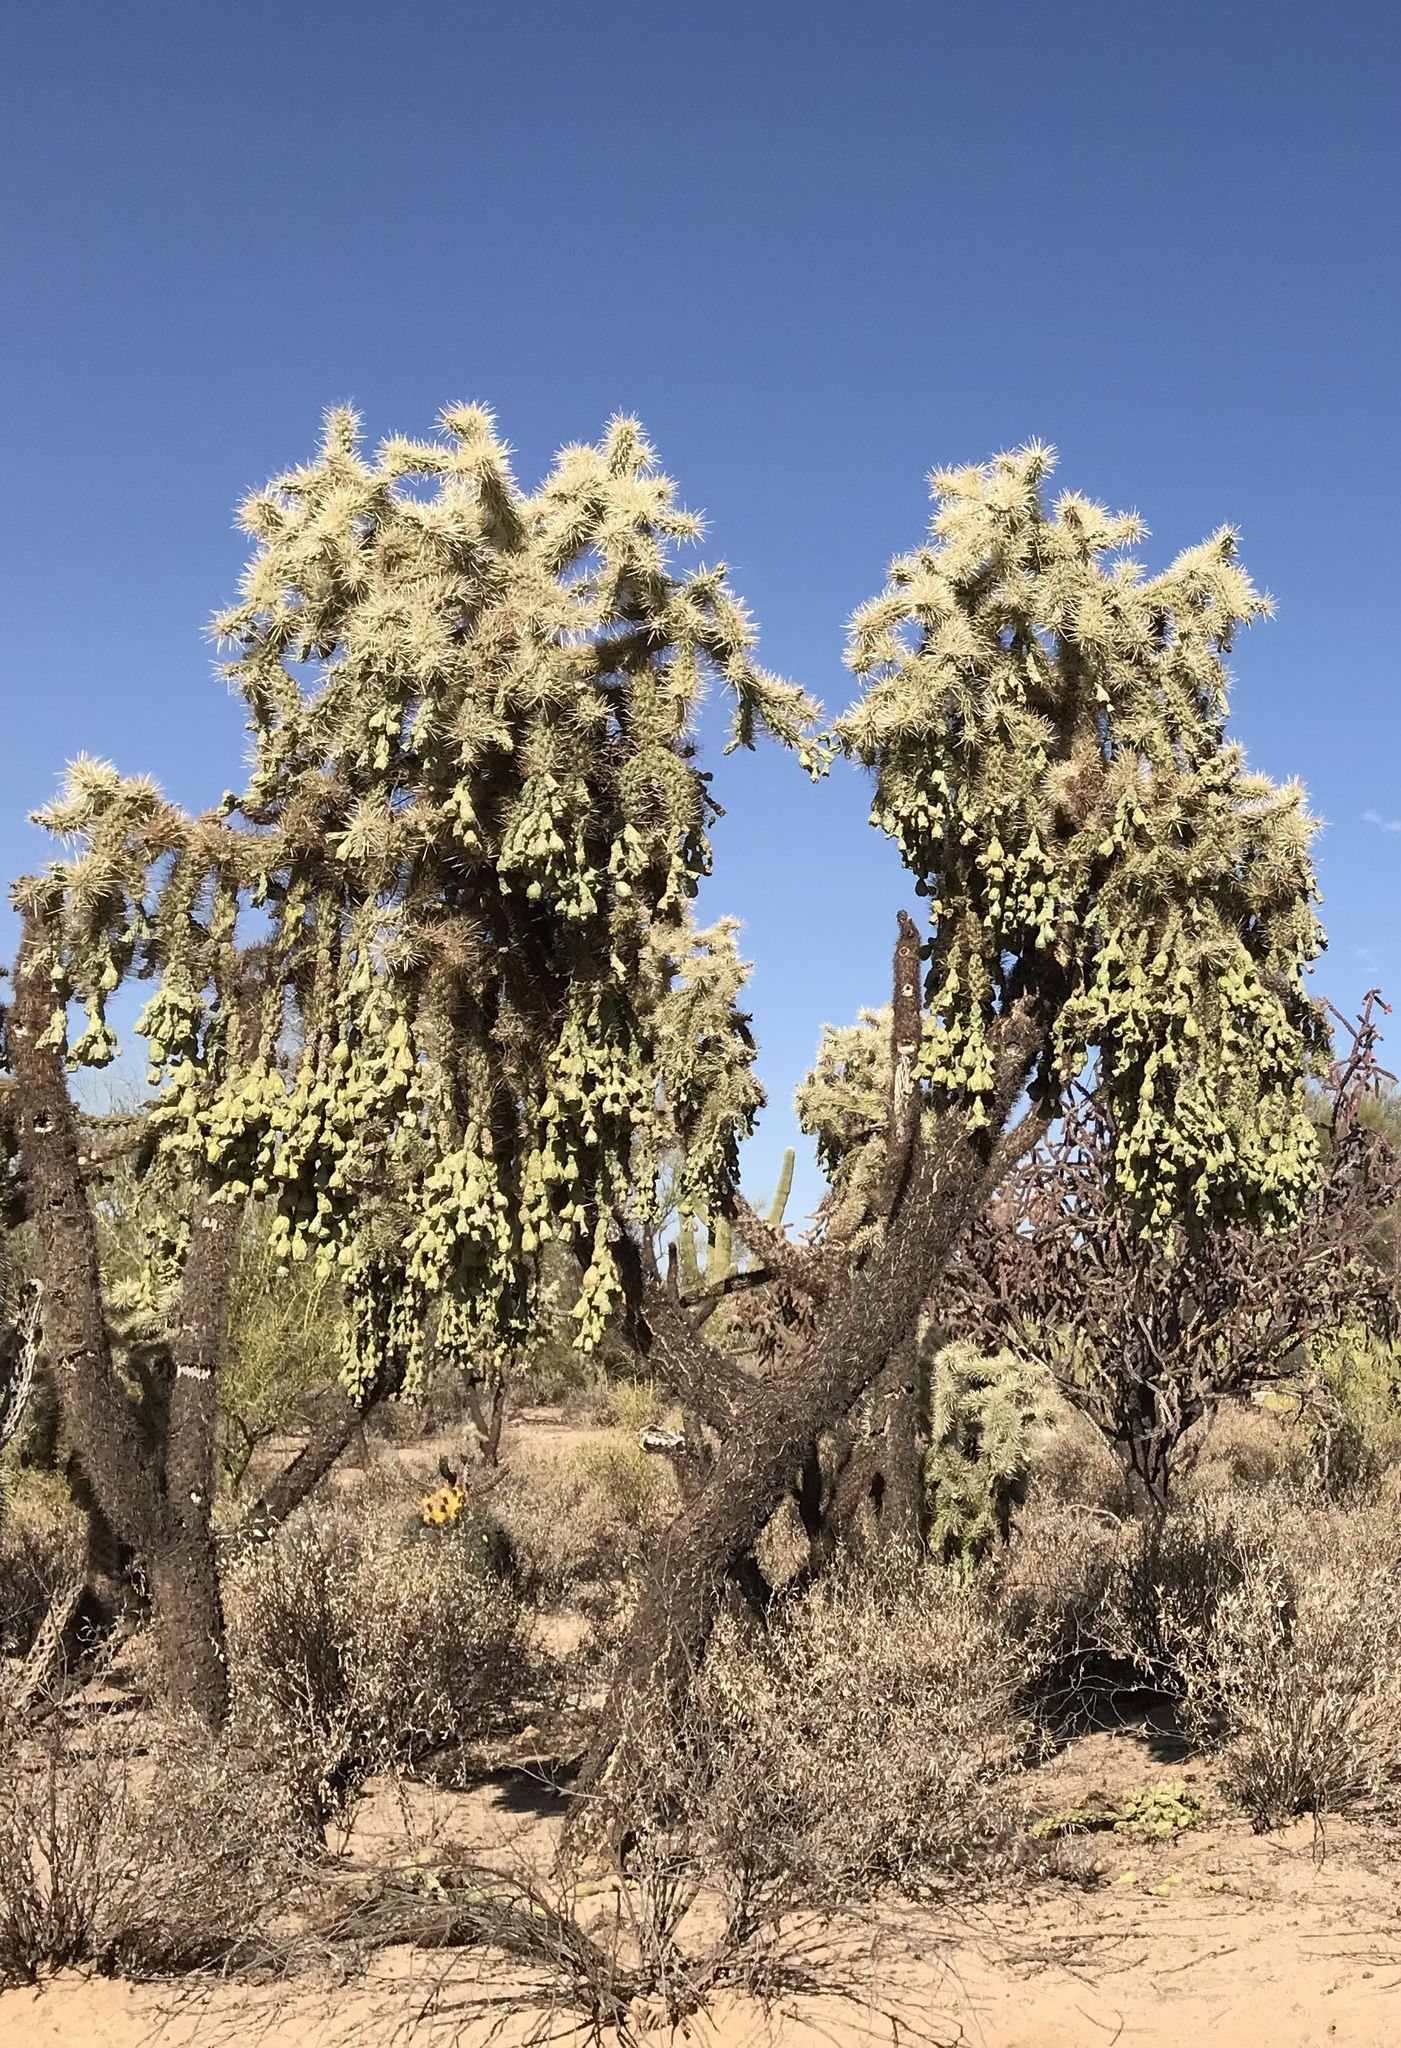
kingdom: Plantae
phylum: Tracheophyta
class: Magnoliopsida
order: Caryophyllales
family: Cactaceae
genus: Cylindropuntia
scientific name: Cylindropuntia fulgida
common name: Jumping cholla
